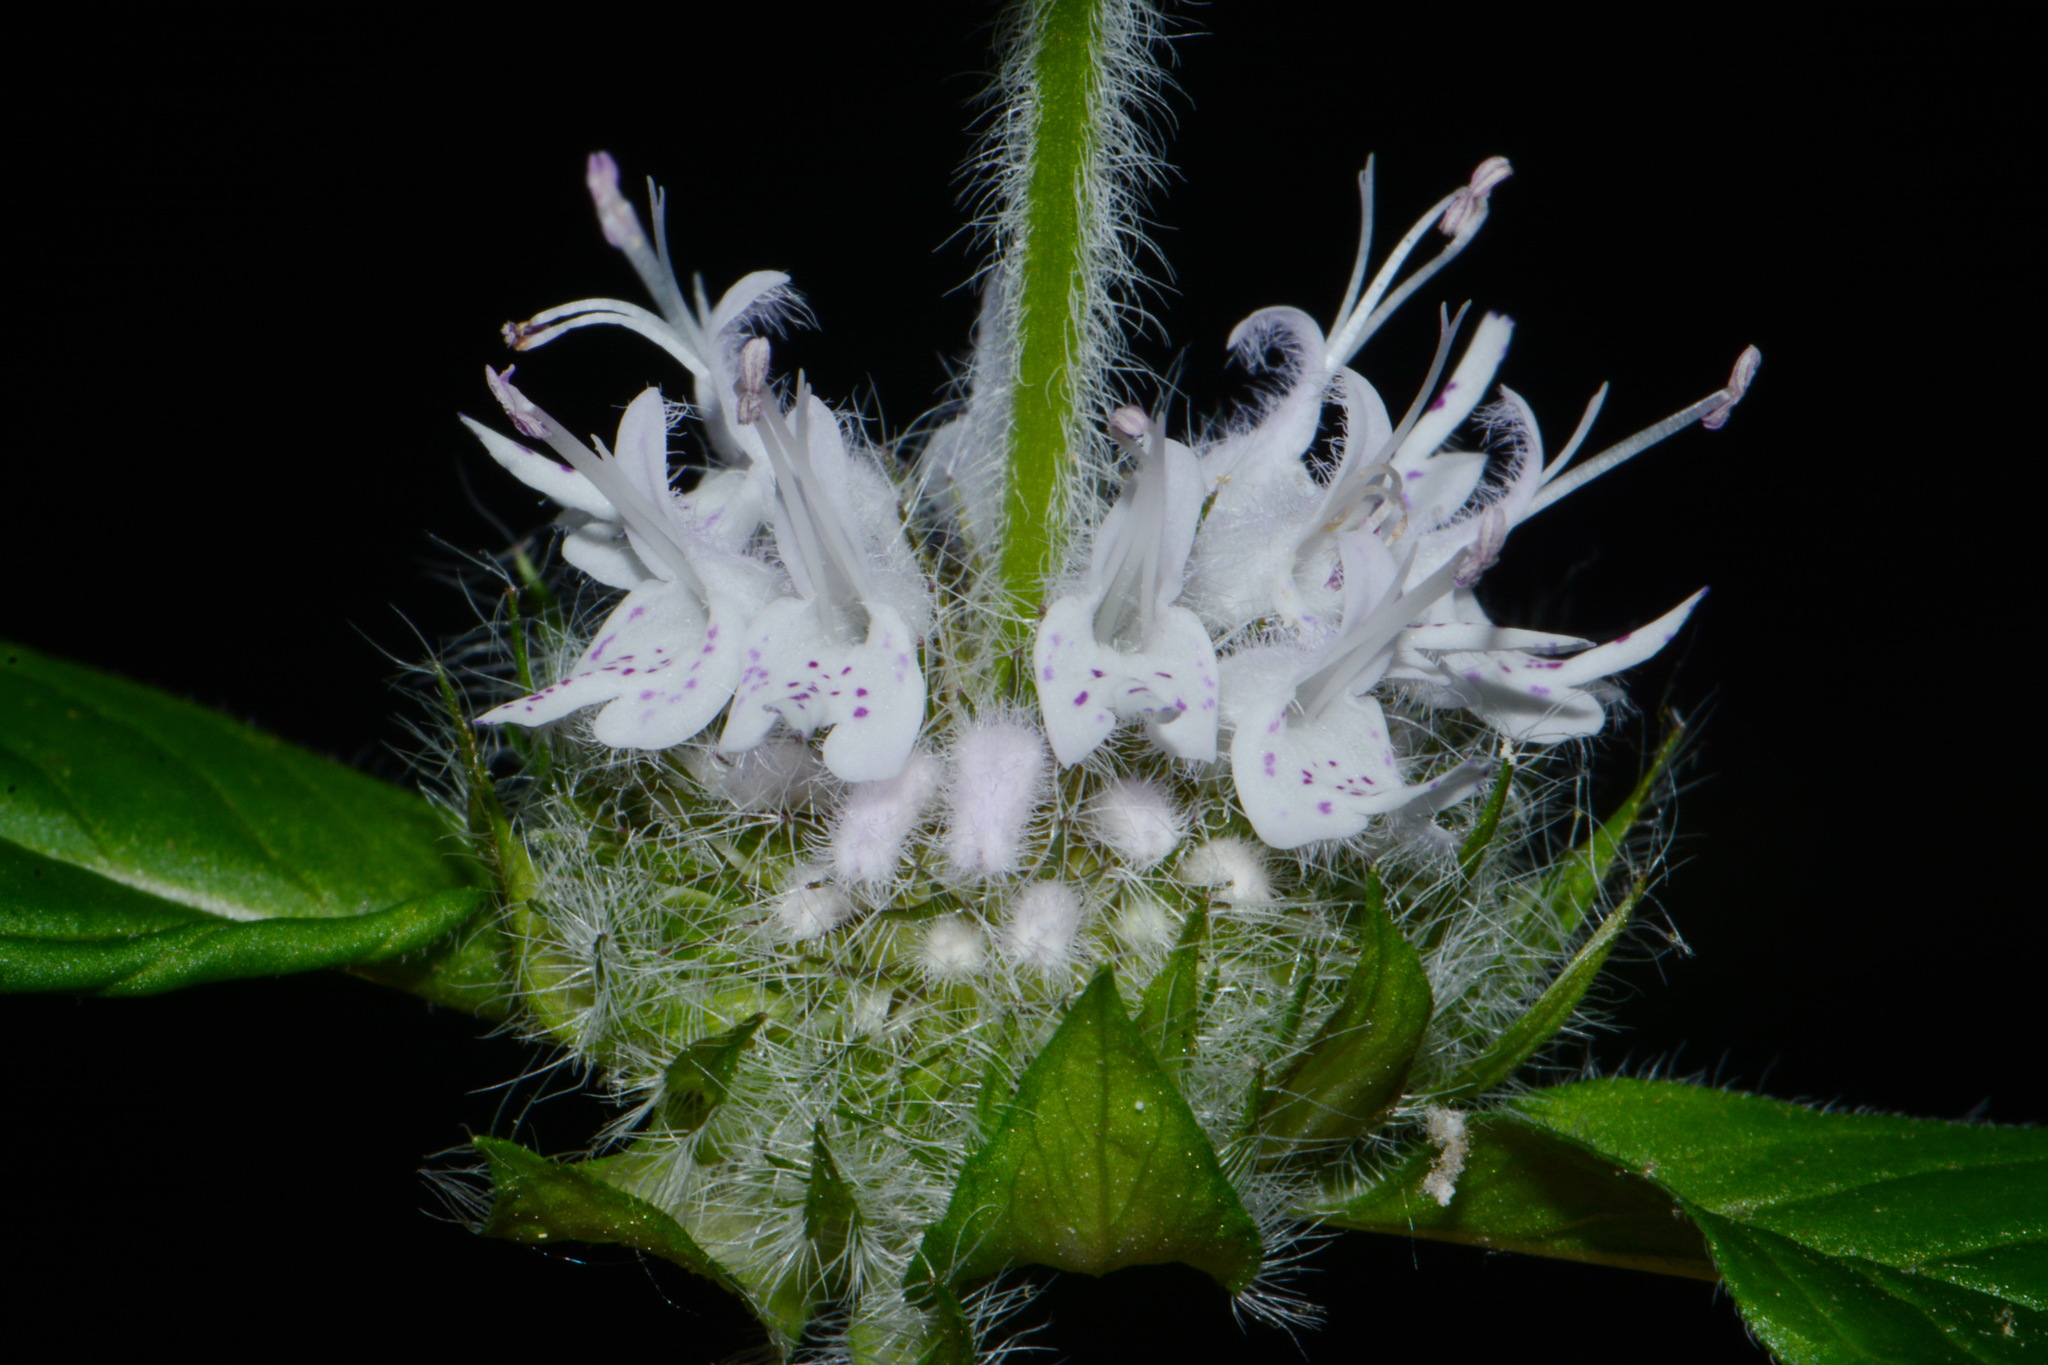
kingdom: Plantae
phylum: Tracheophyta
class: Magnoliopsida
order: Lamiales
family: Lamiaceae
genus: Blephilia
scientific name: Blephilia subnuda
